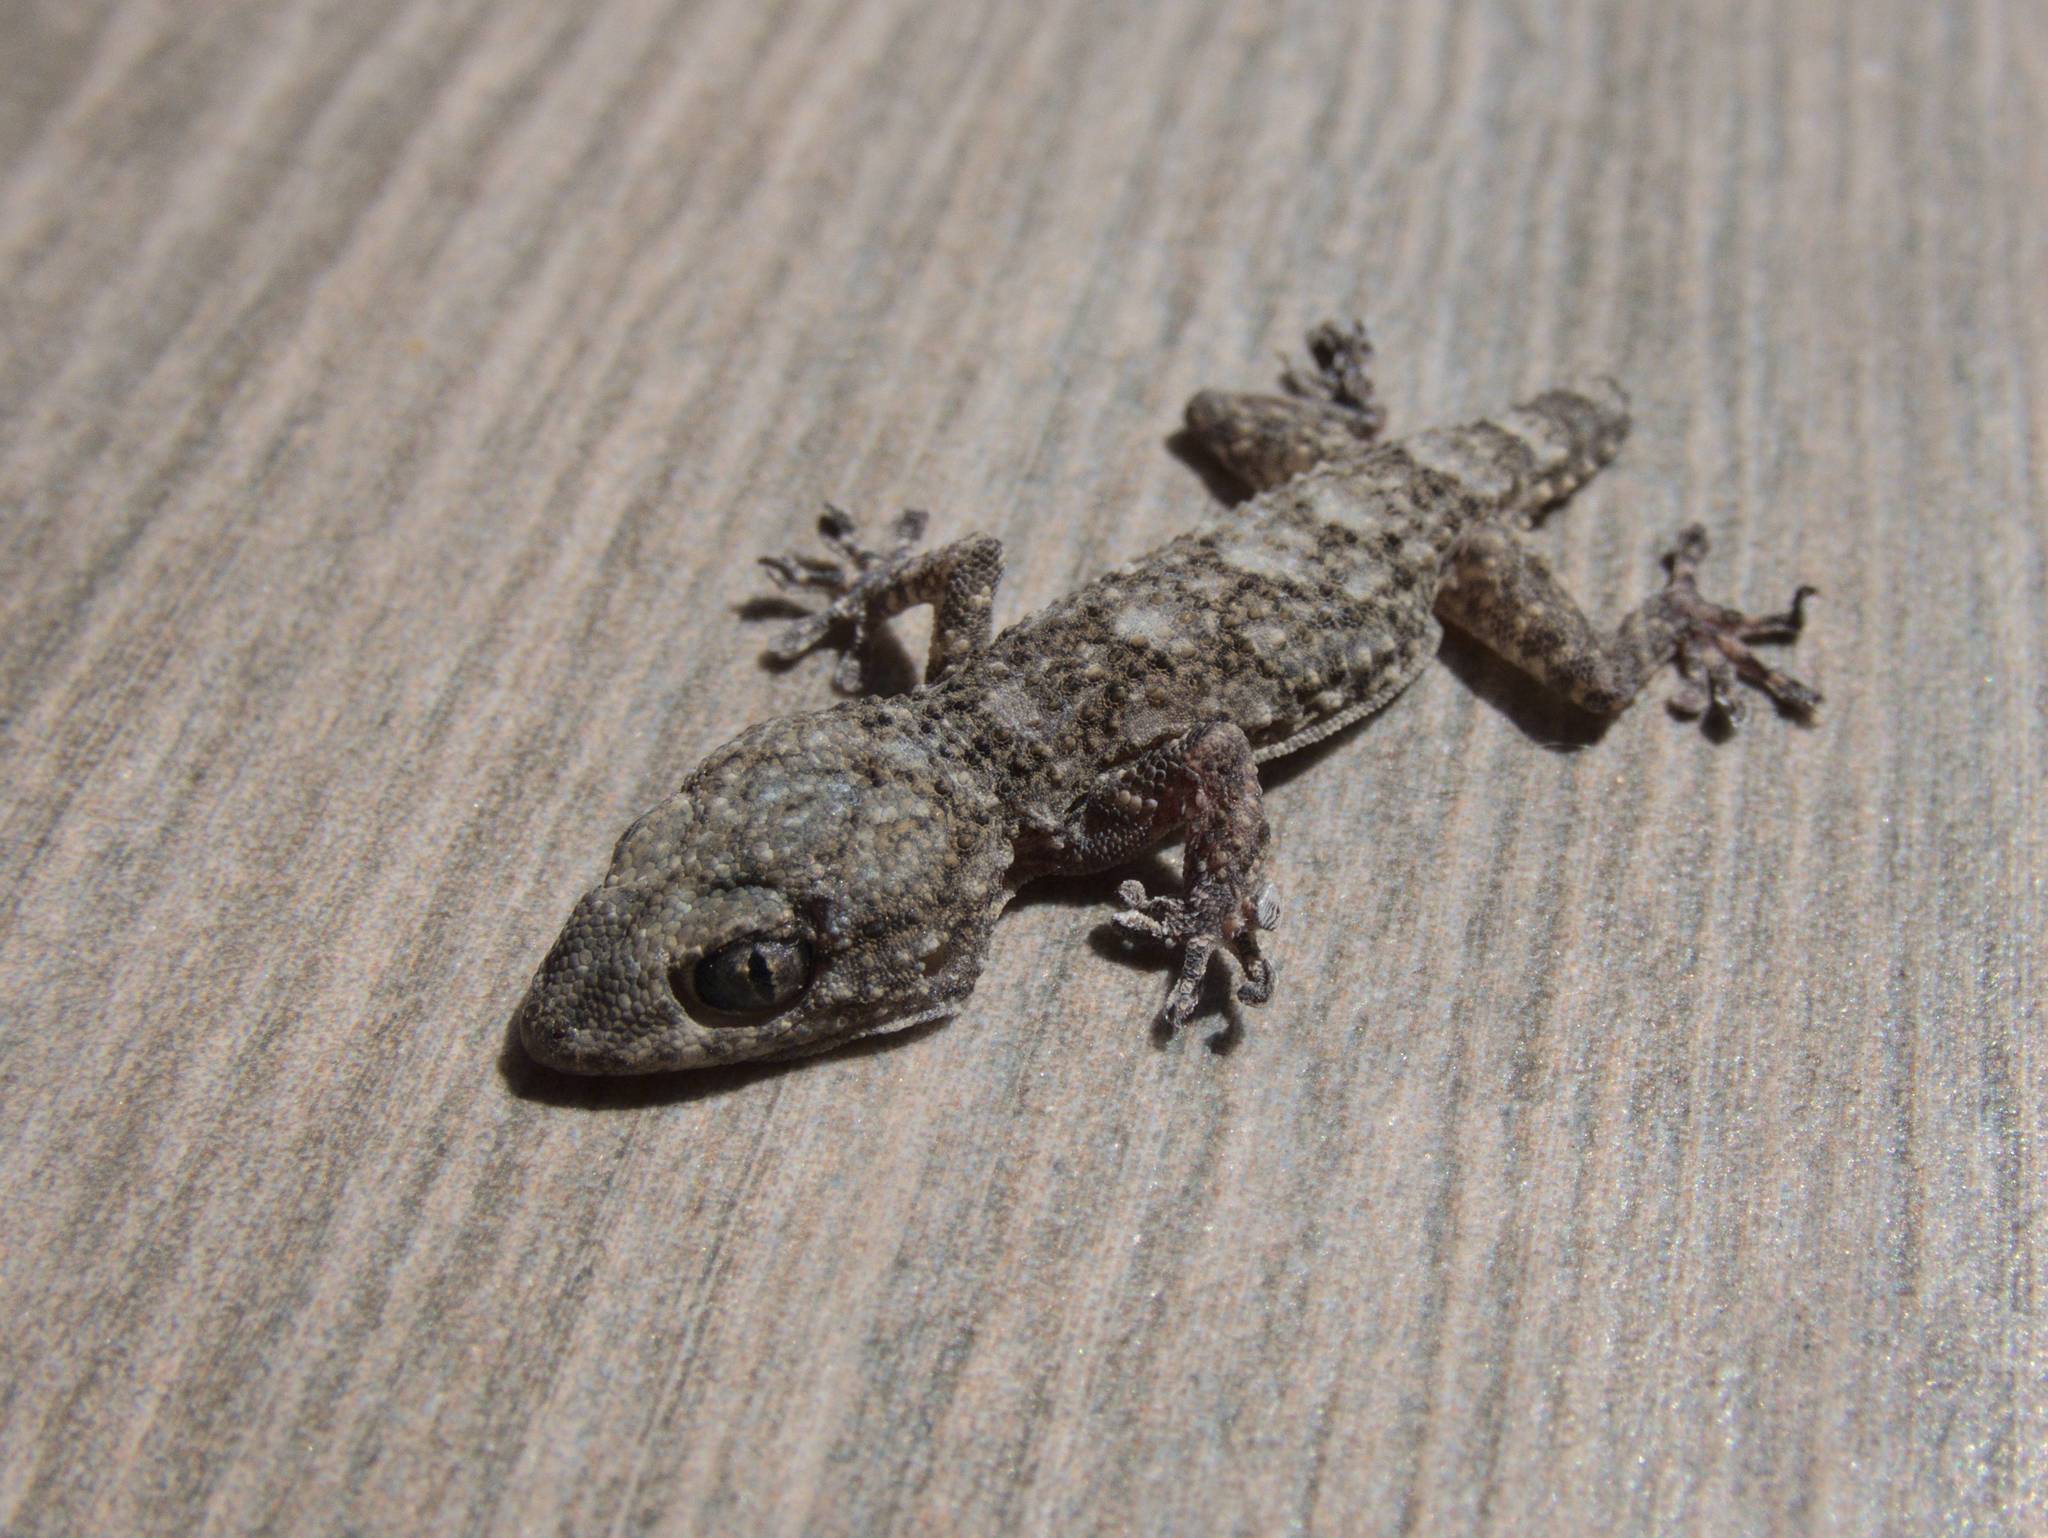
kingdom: Animalia
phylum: Chordata
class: Squamata
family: Phyllodactylidae
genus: Tarentola
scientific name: Tarentola mauritanica
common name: Moorish gecko
